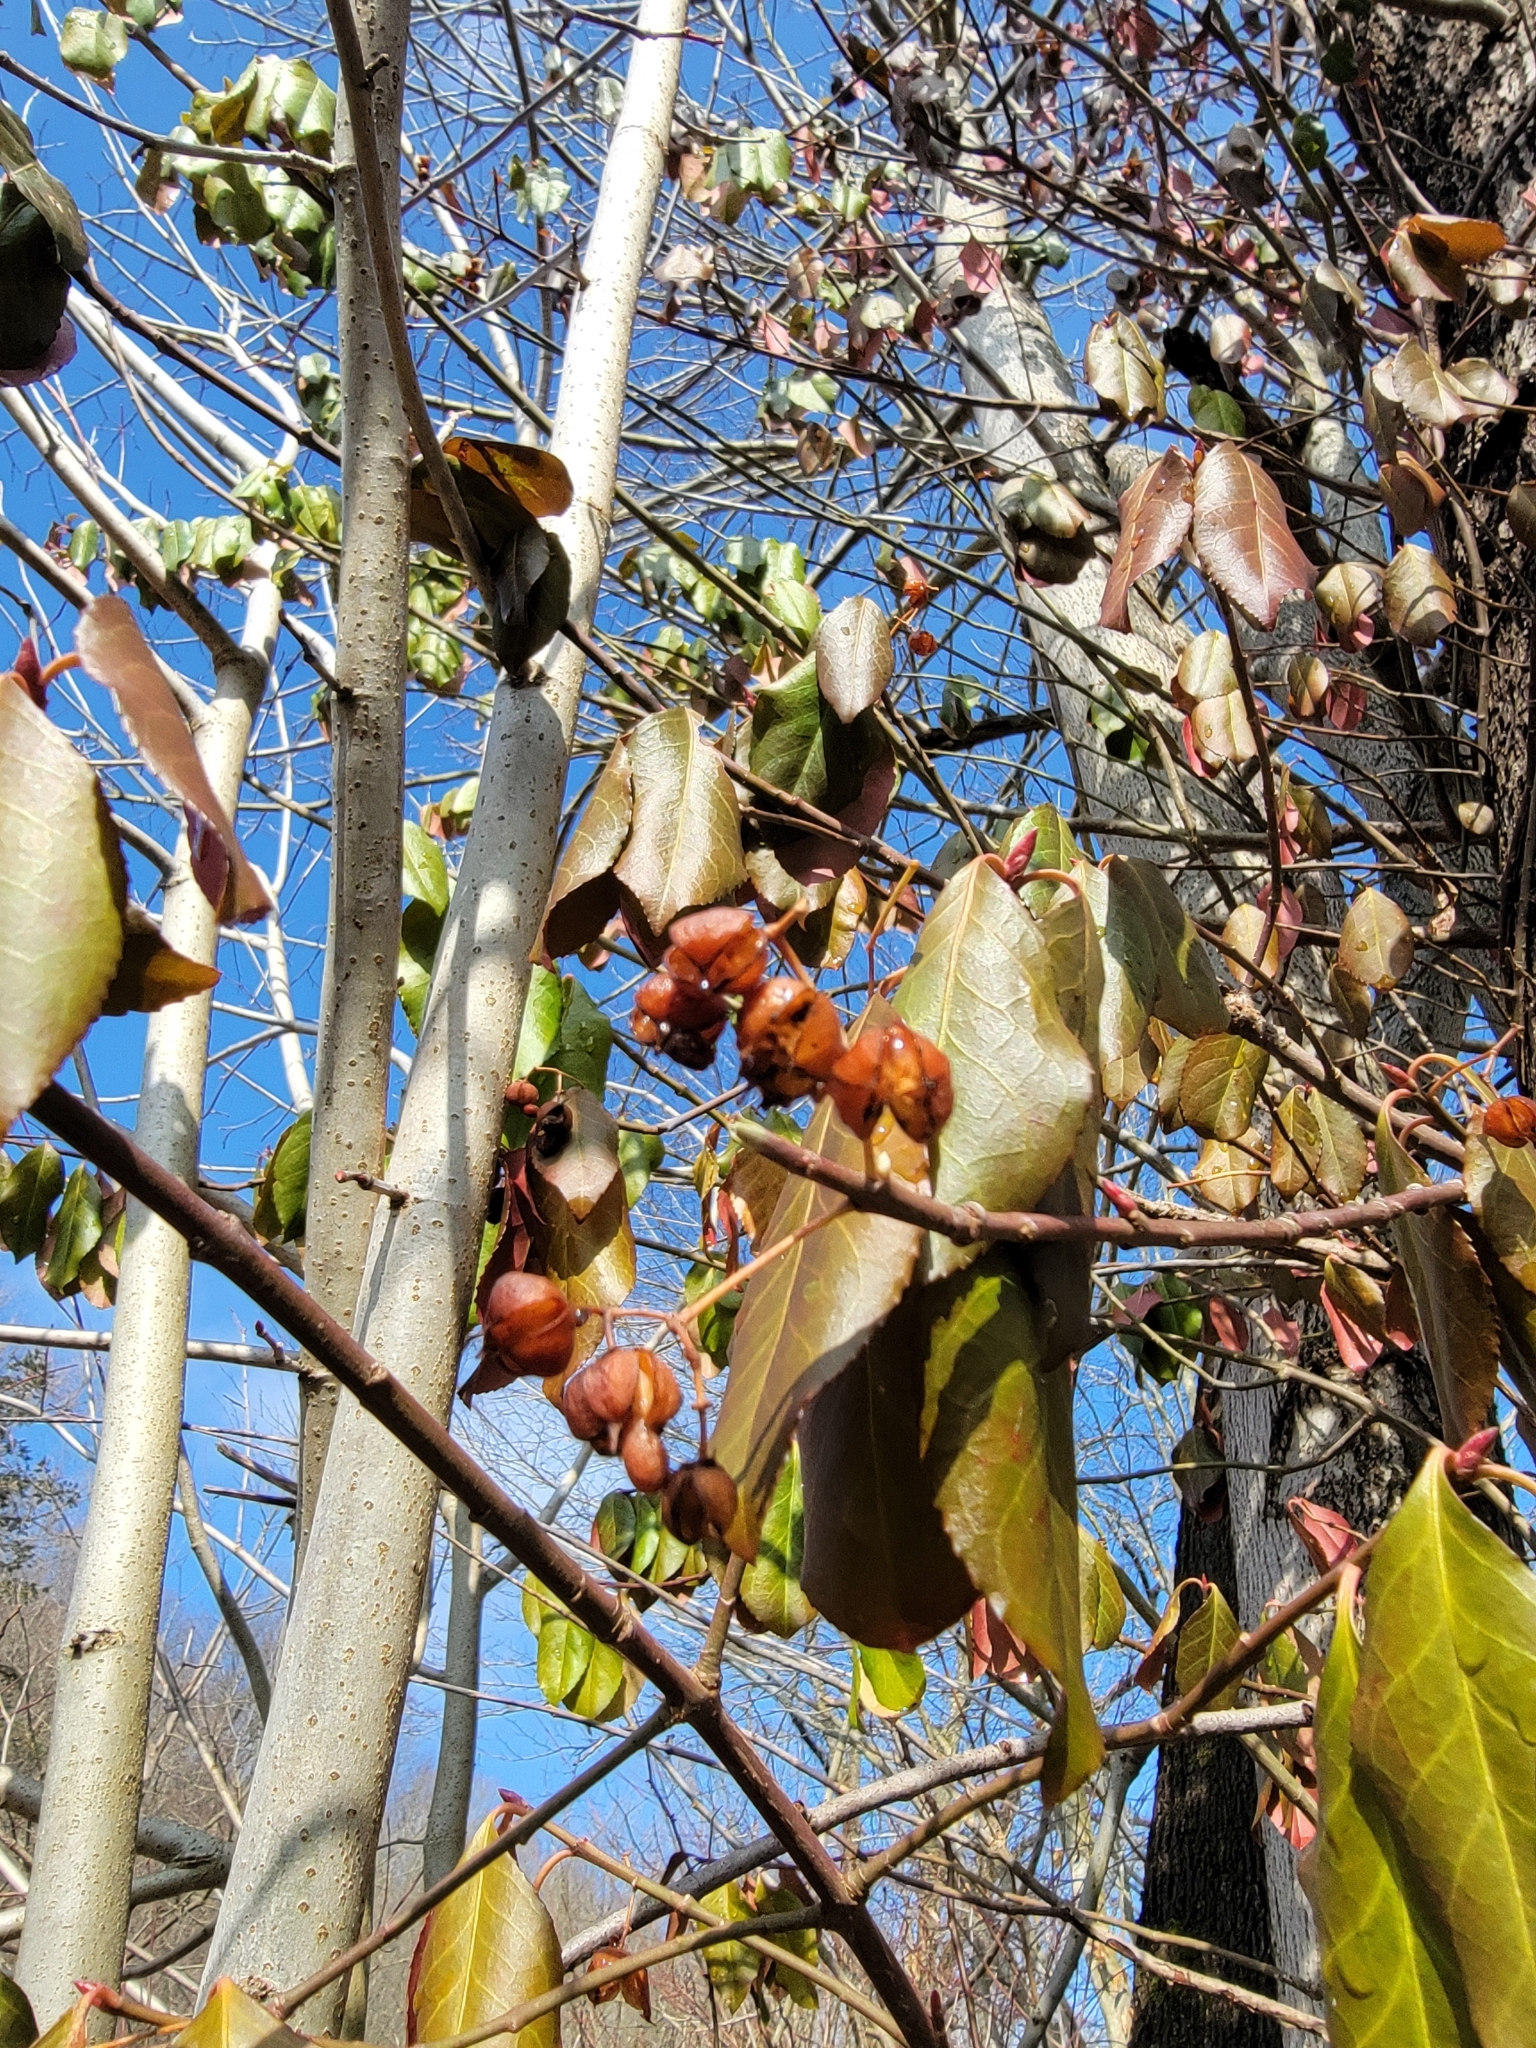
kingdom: Plantae
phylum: Tracheophyta
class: Magnoliopsida
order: Celastrales
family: Celastraceae
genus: Euonymus
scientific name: Euonymus fortunei
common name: Climbing euonymus
